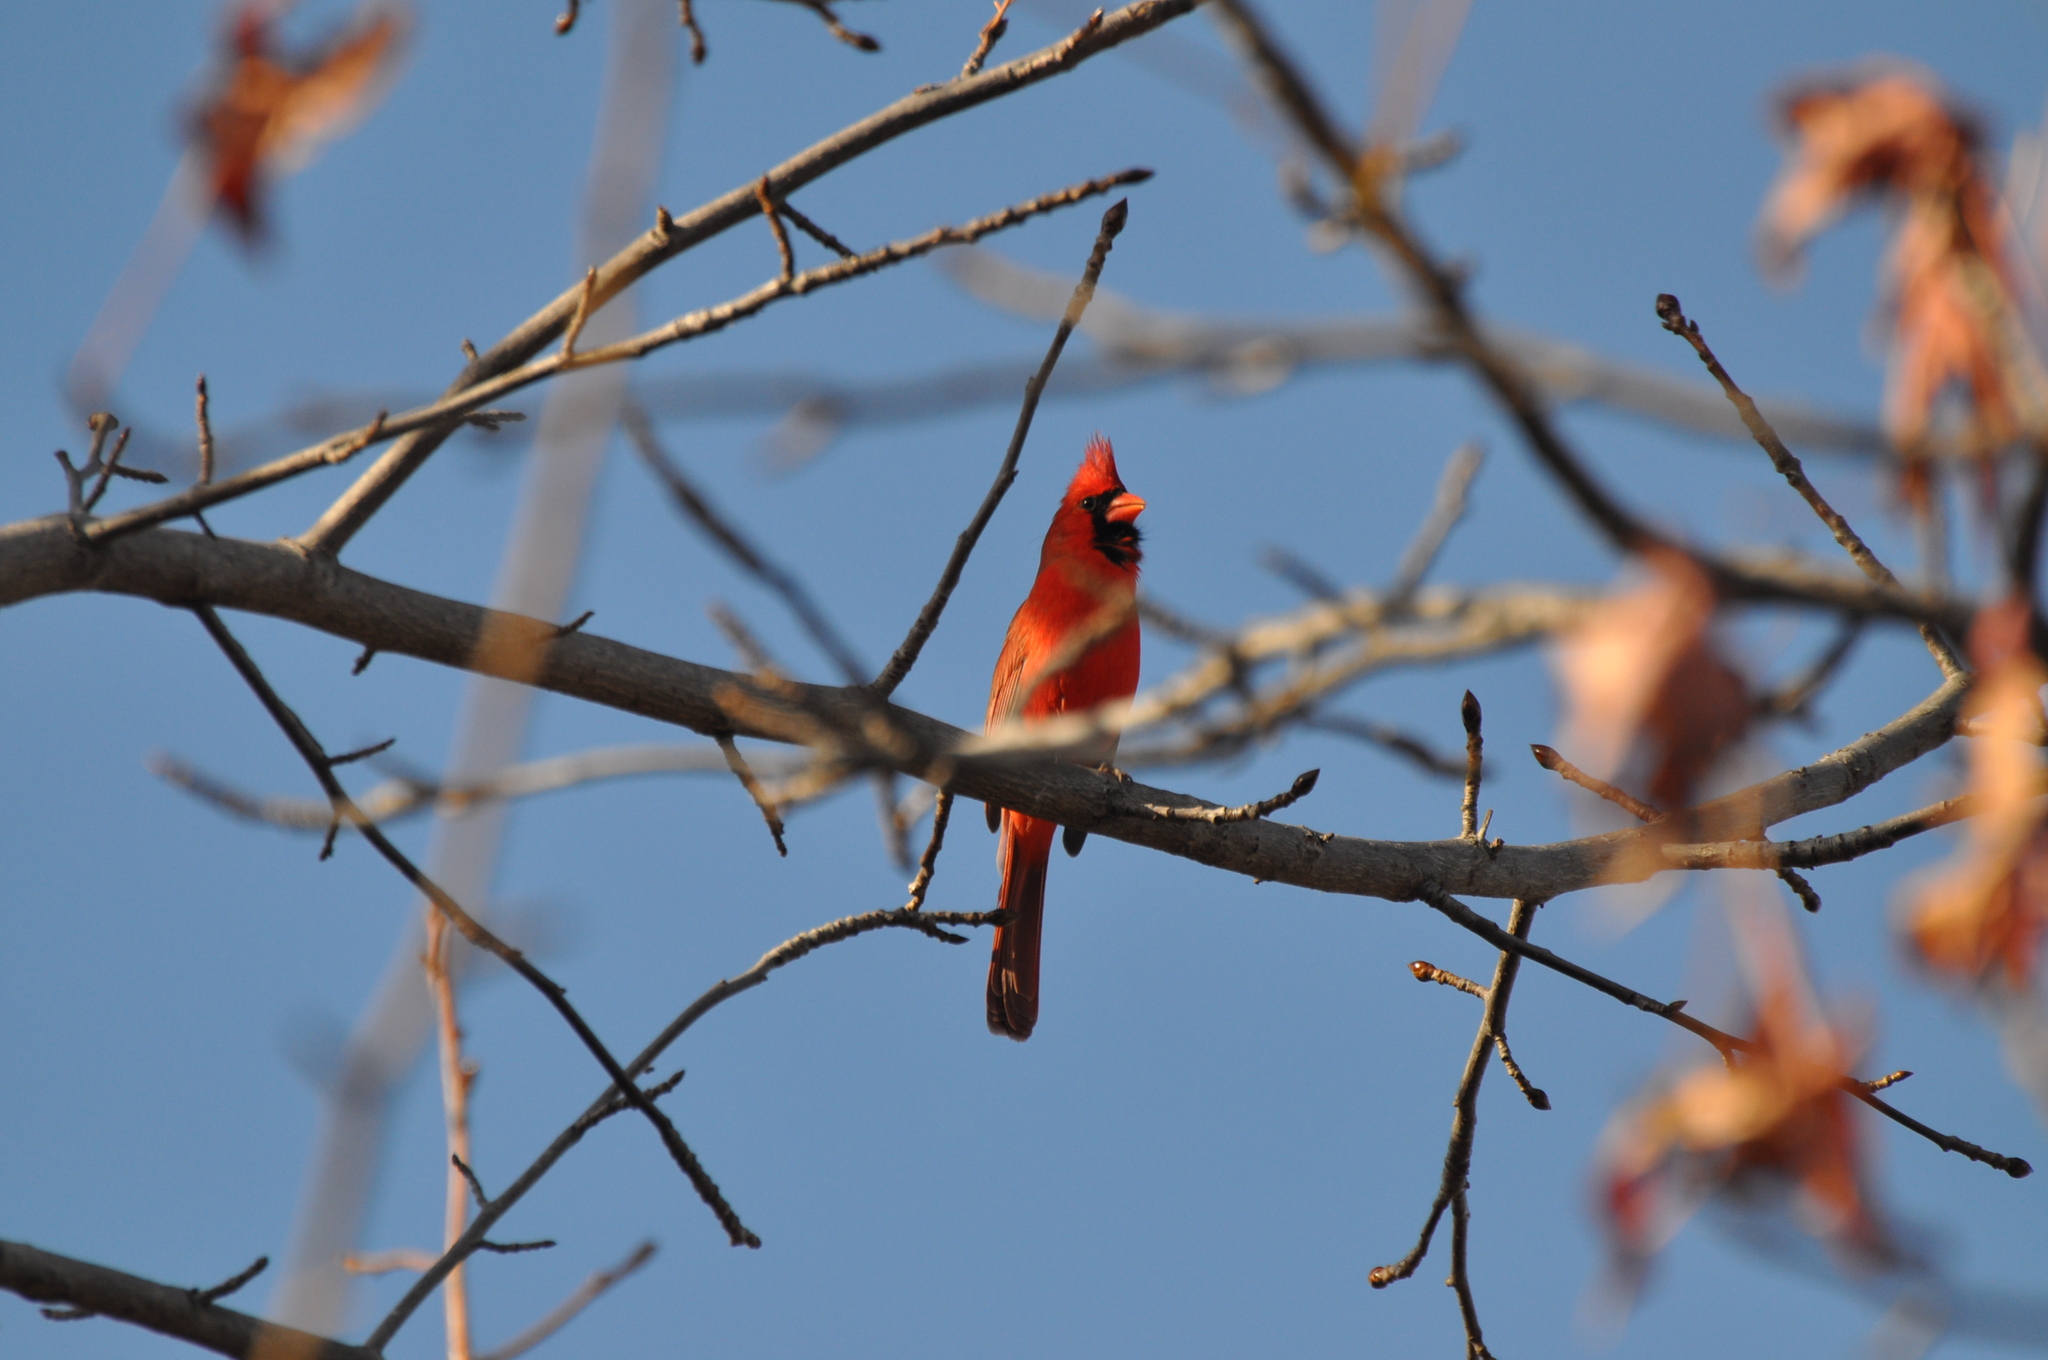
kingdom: Animalia
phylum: Chordata
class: Aves
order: Passeriformes
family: Cardinalidae
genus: Cardinalis
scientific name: Cardinalis cardinalis
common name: Northern cardinal
